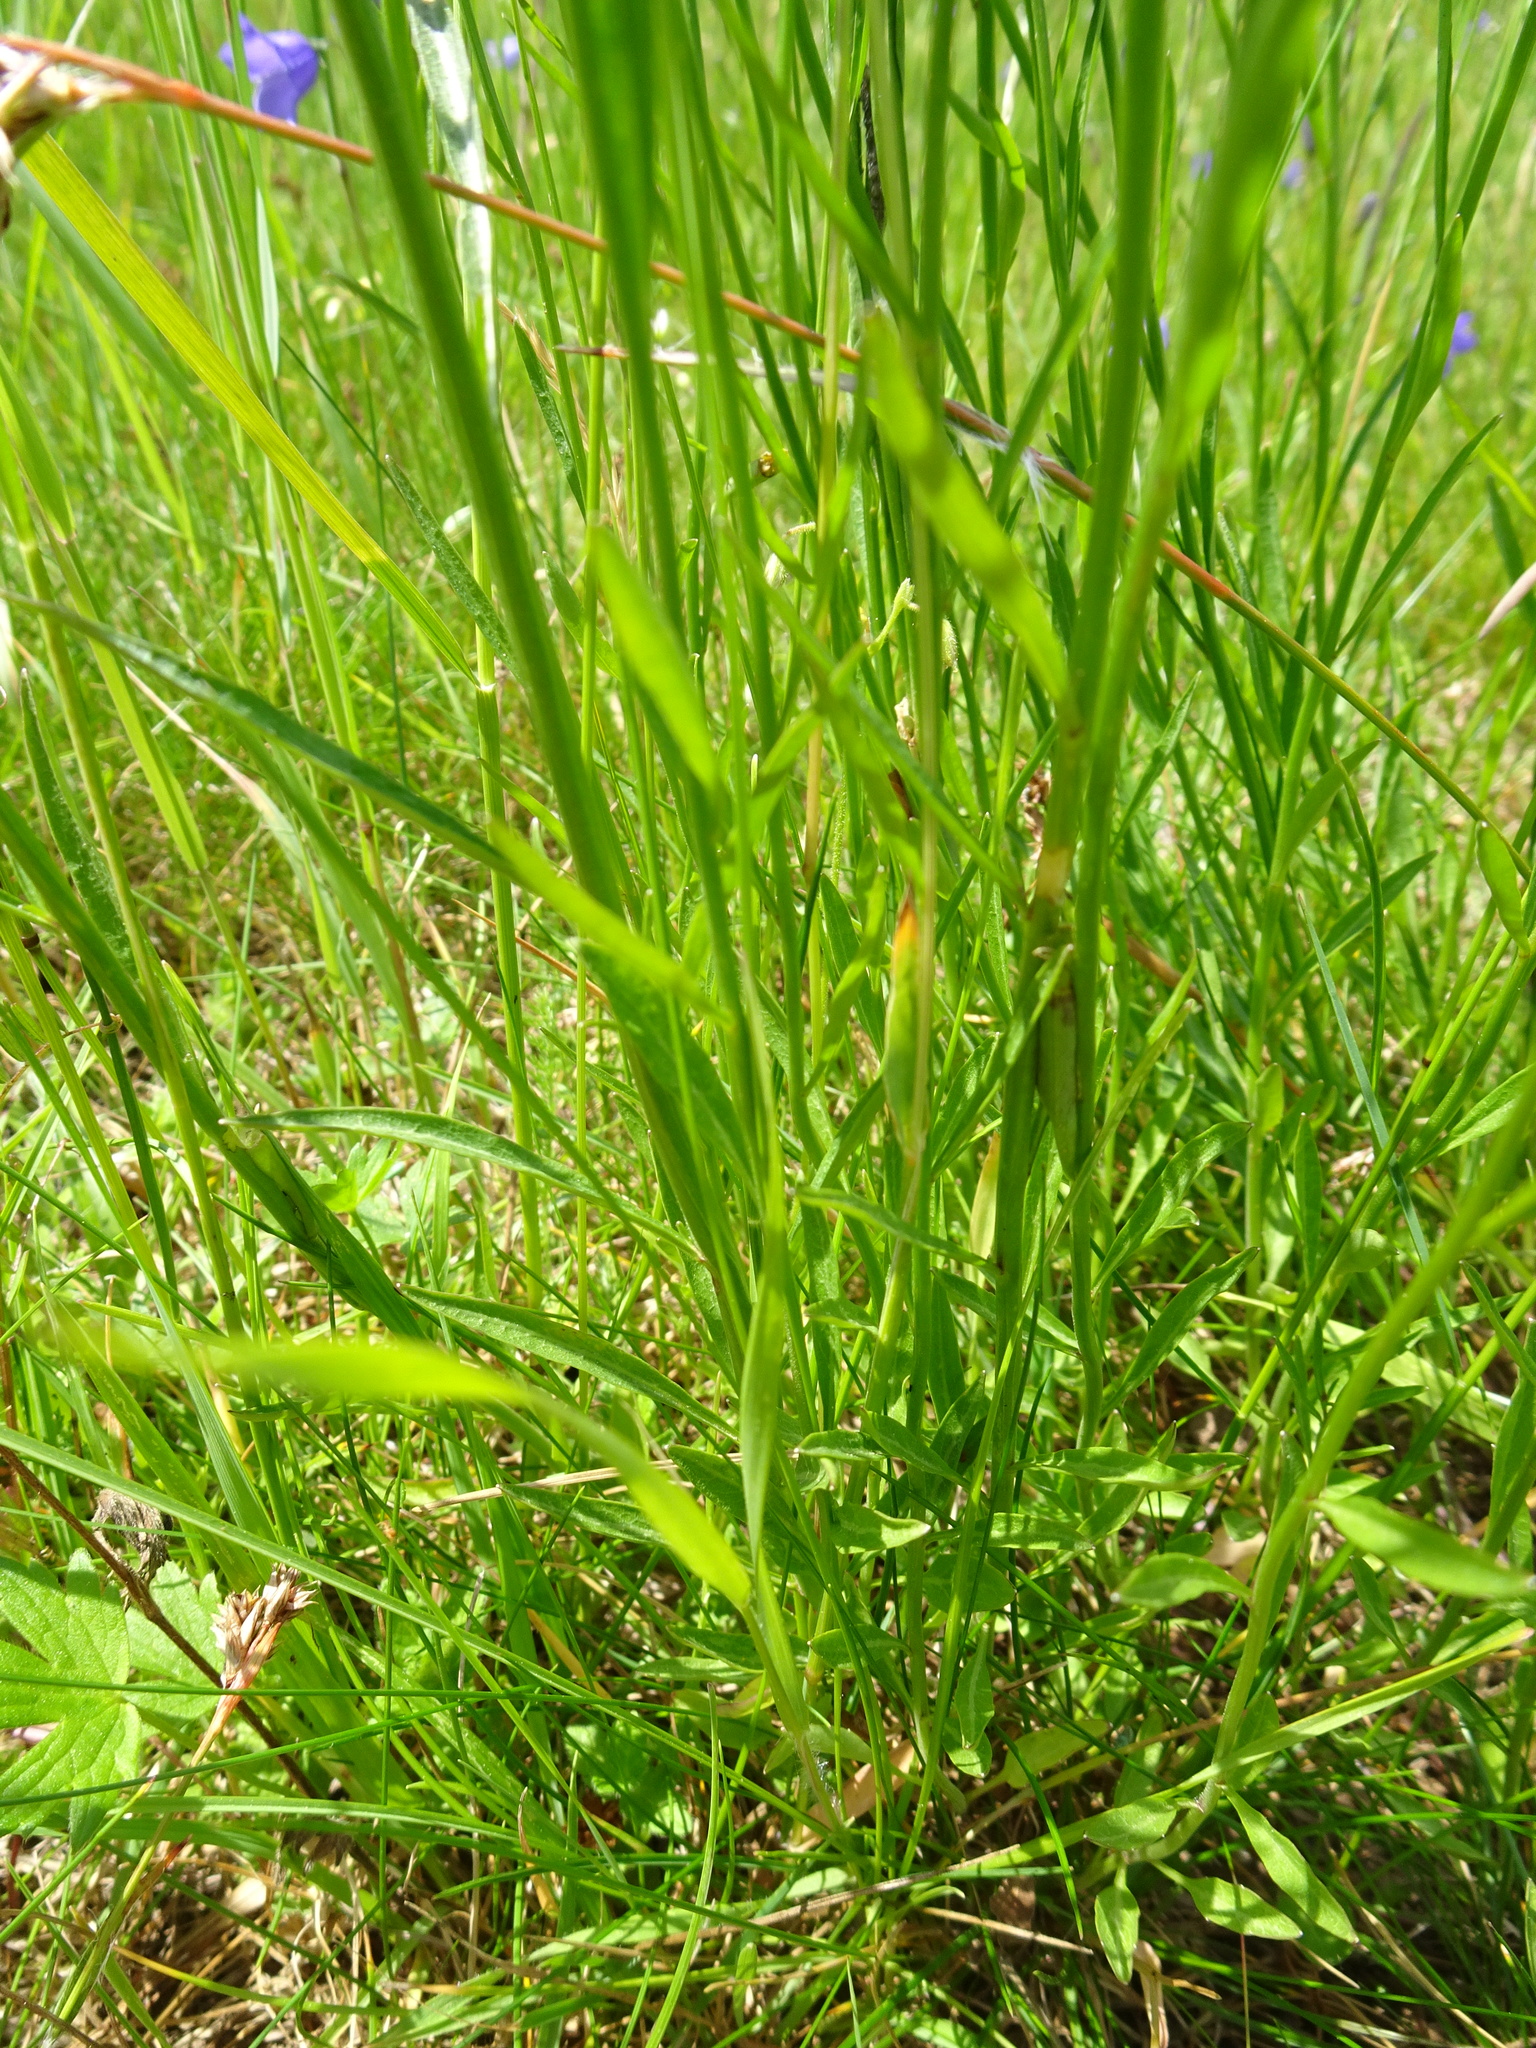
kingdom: Plantae
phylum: Tracheophyta
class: Magnoliopsida
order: Asterales
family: Campanulaceae
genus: Campanula
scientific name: Campanula rotundifolia
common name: Harebell
